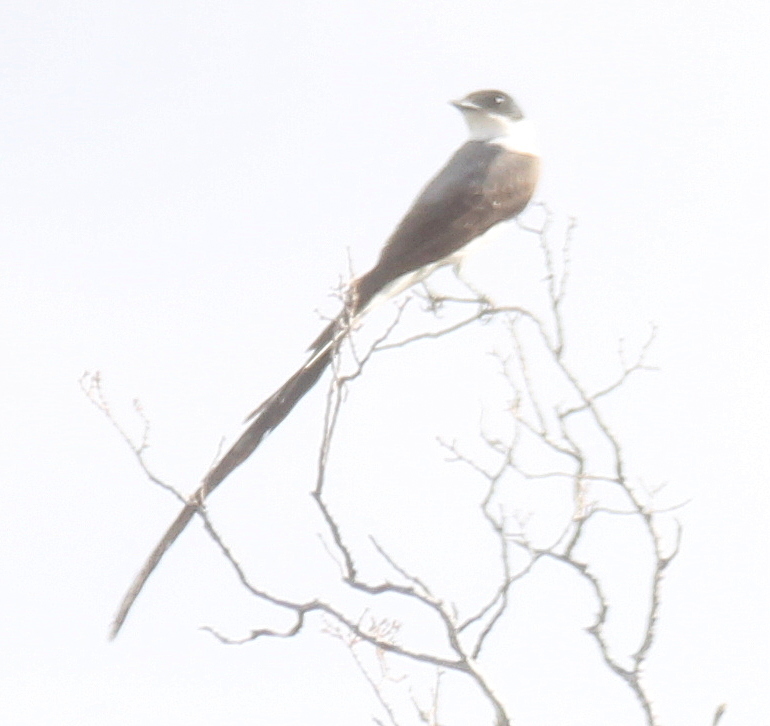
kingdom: Animalia
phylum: Chordata
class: Aves
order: Passeriformes
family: Tyrannidae
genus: Tyrannus
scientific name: Tyrannus savana
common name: Fork-tailed flycatcher
